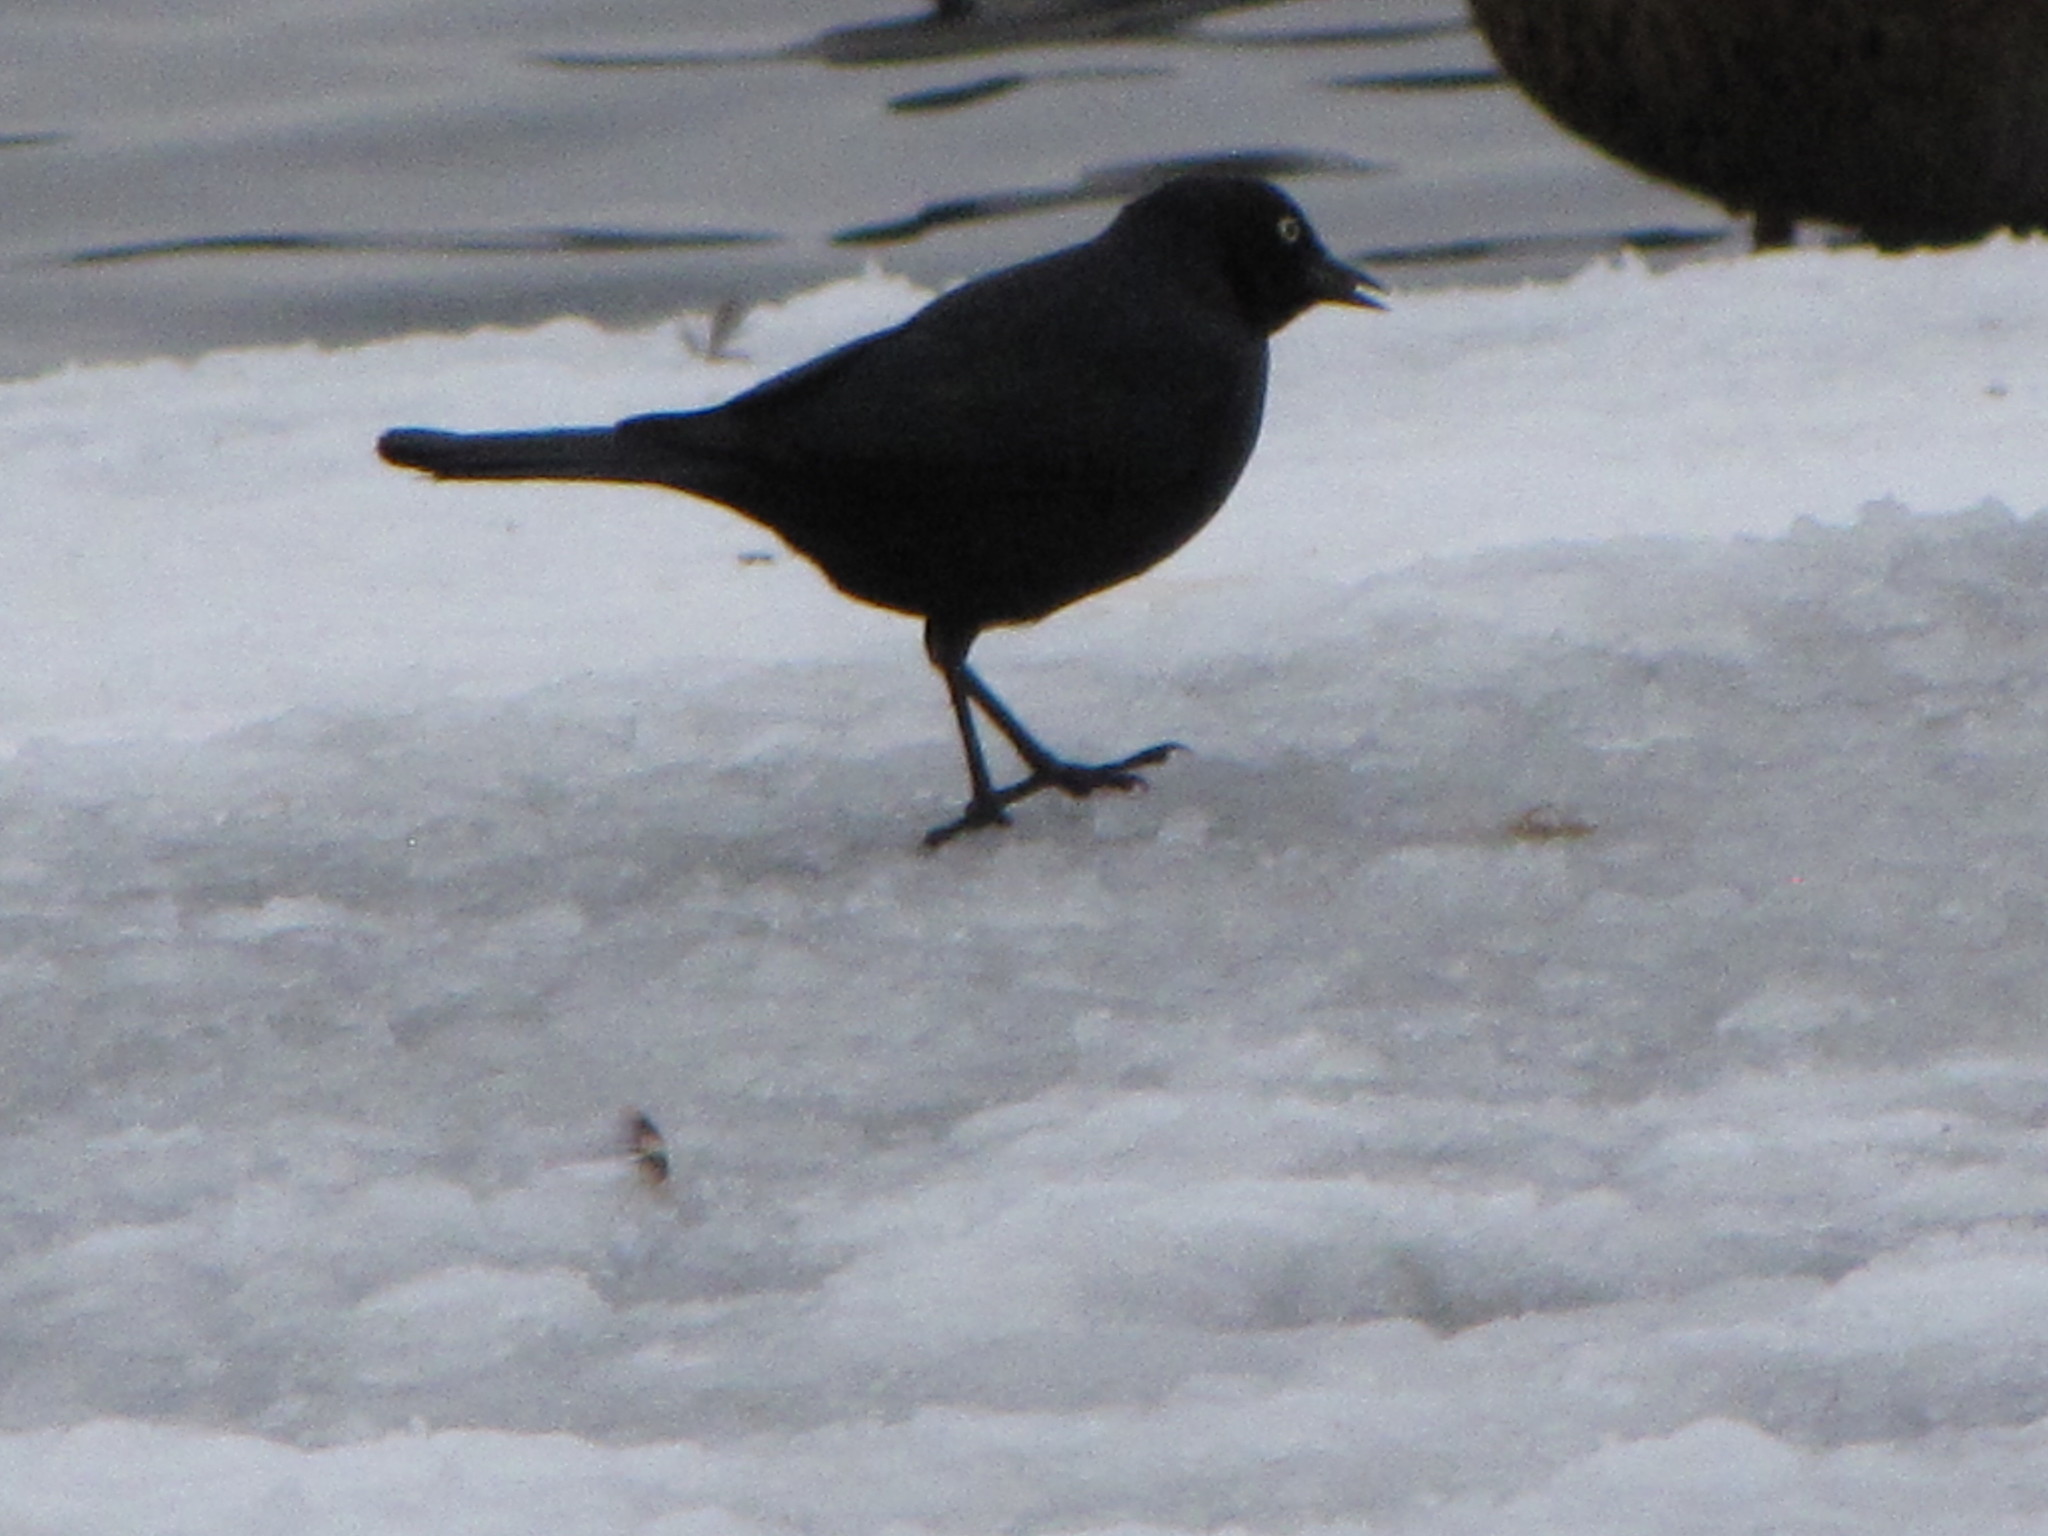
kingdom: Animalia
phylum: Chordata
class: Aves
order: Passeriformes
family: Icteridae
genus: Euphagus
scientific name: Euphagus cyanocephalus
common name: Brewer's blackbird
